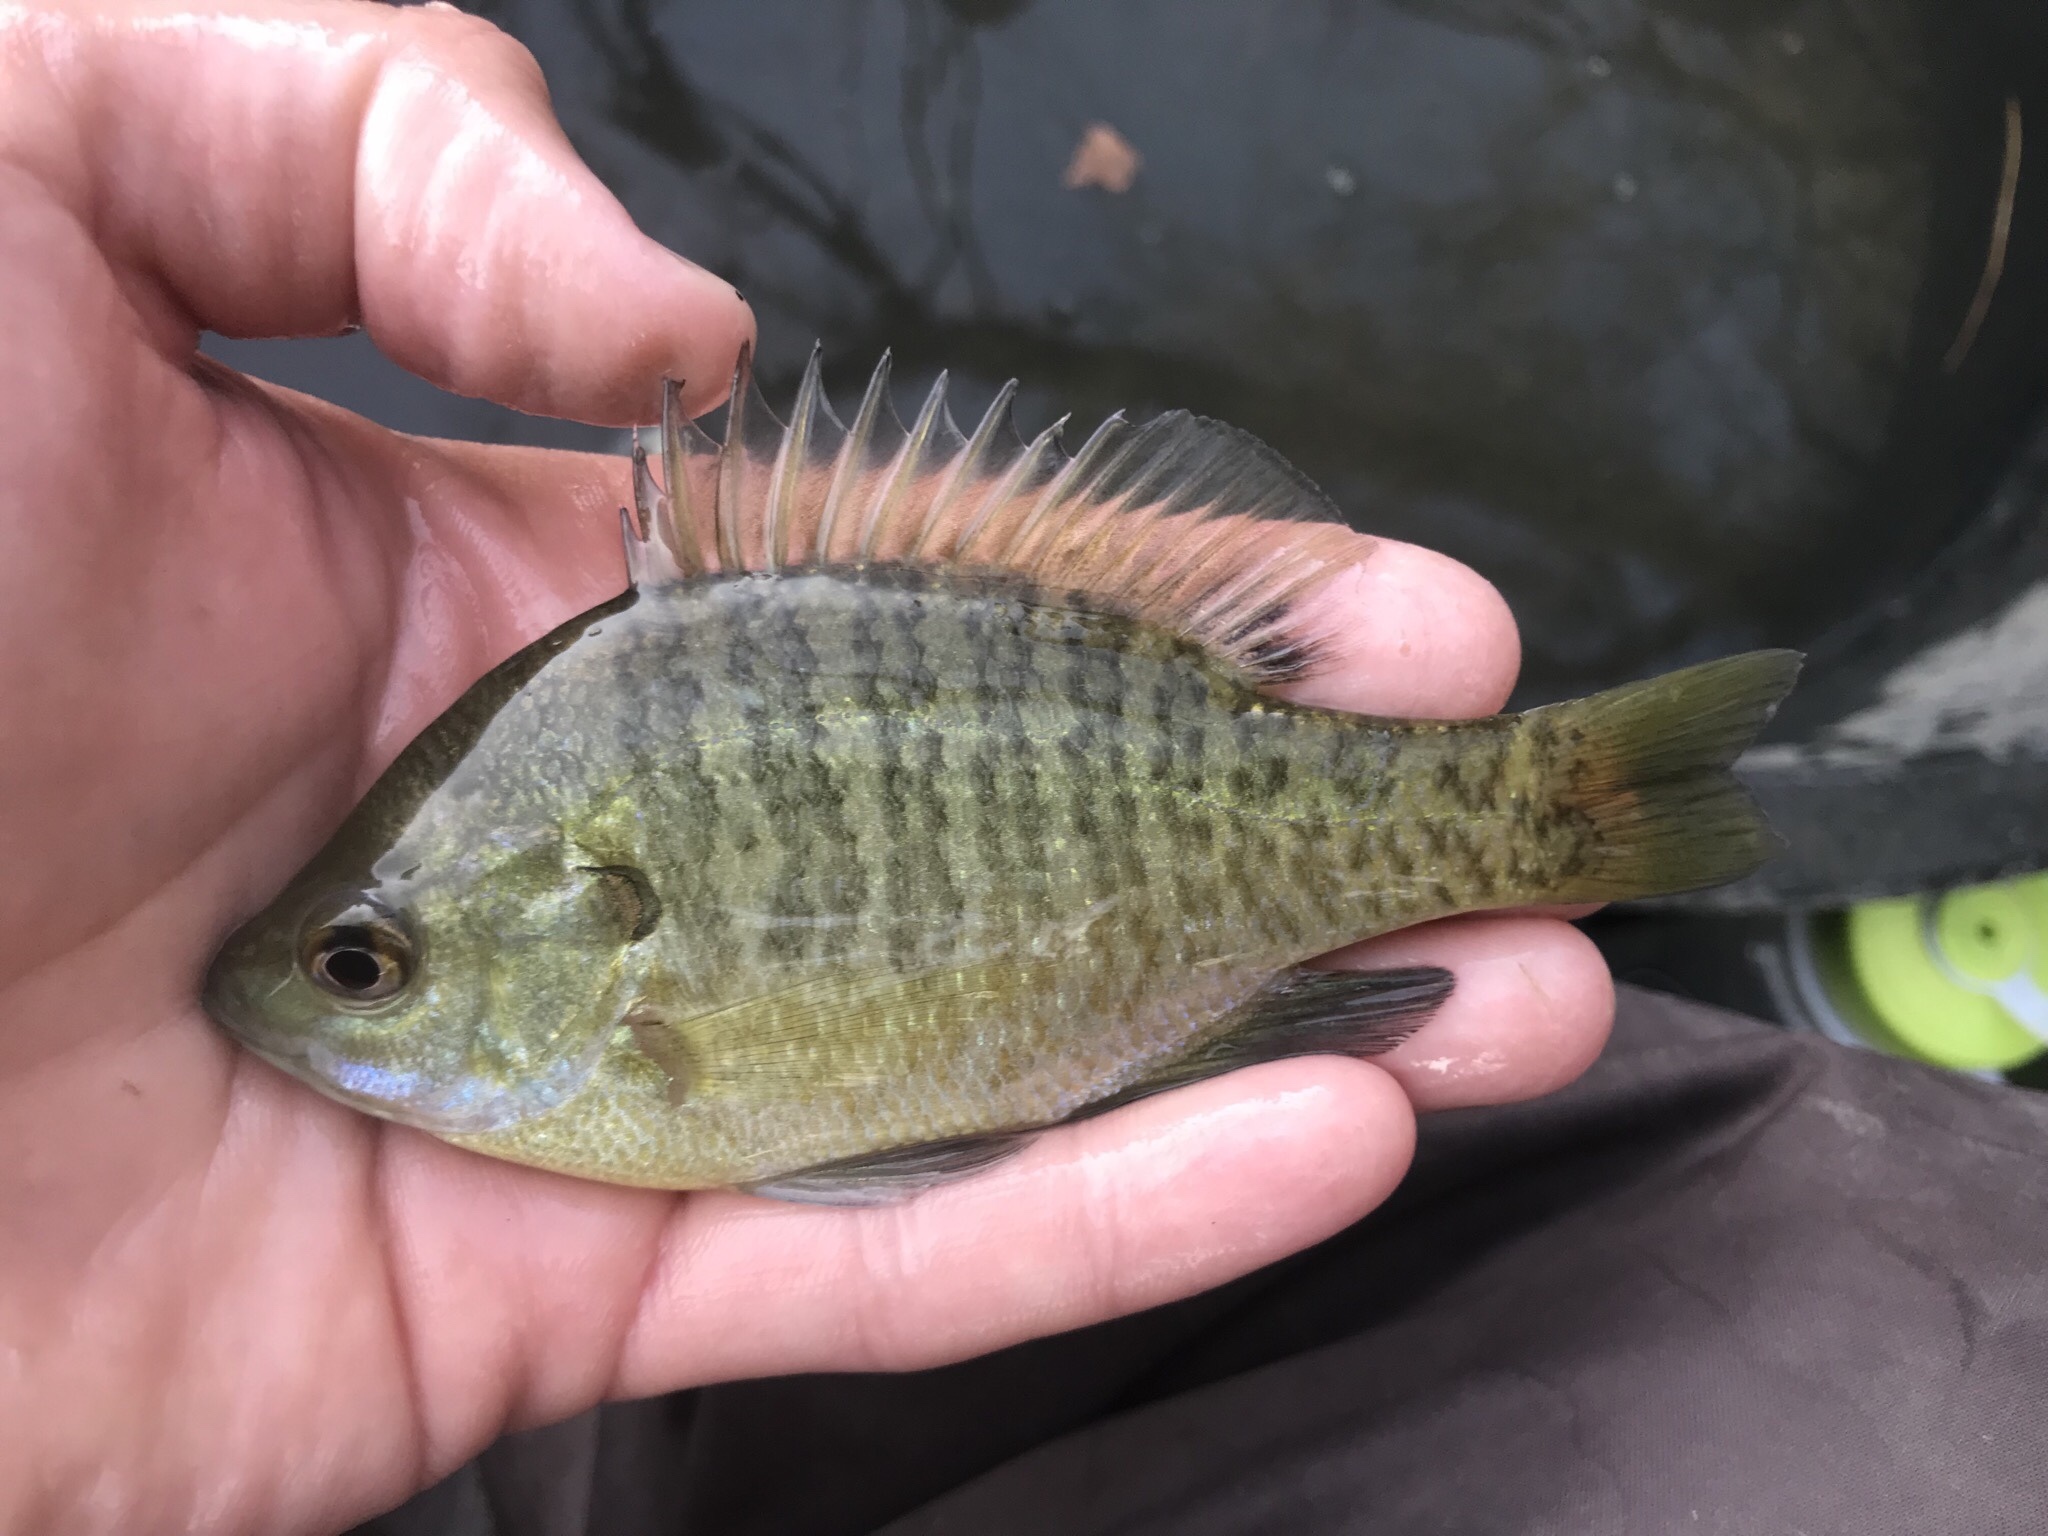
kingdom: Animalia
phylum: Chordata
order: Perciformes
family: Centrarchidae
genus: Lepomis
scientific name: Lepomis macrochirus
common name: Bluegill
